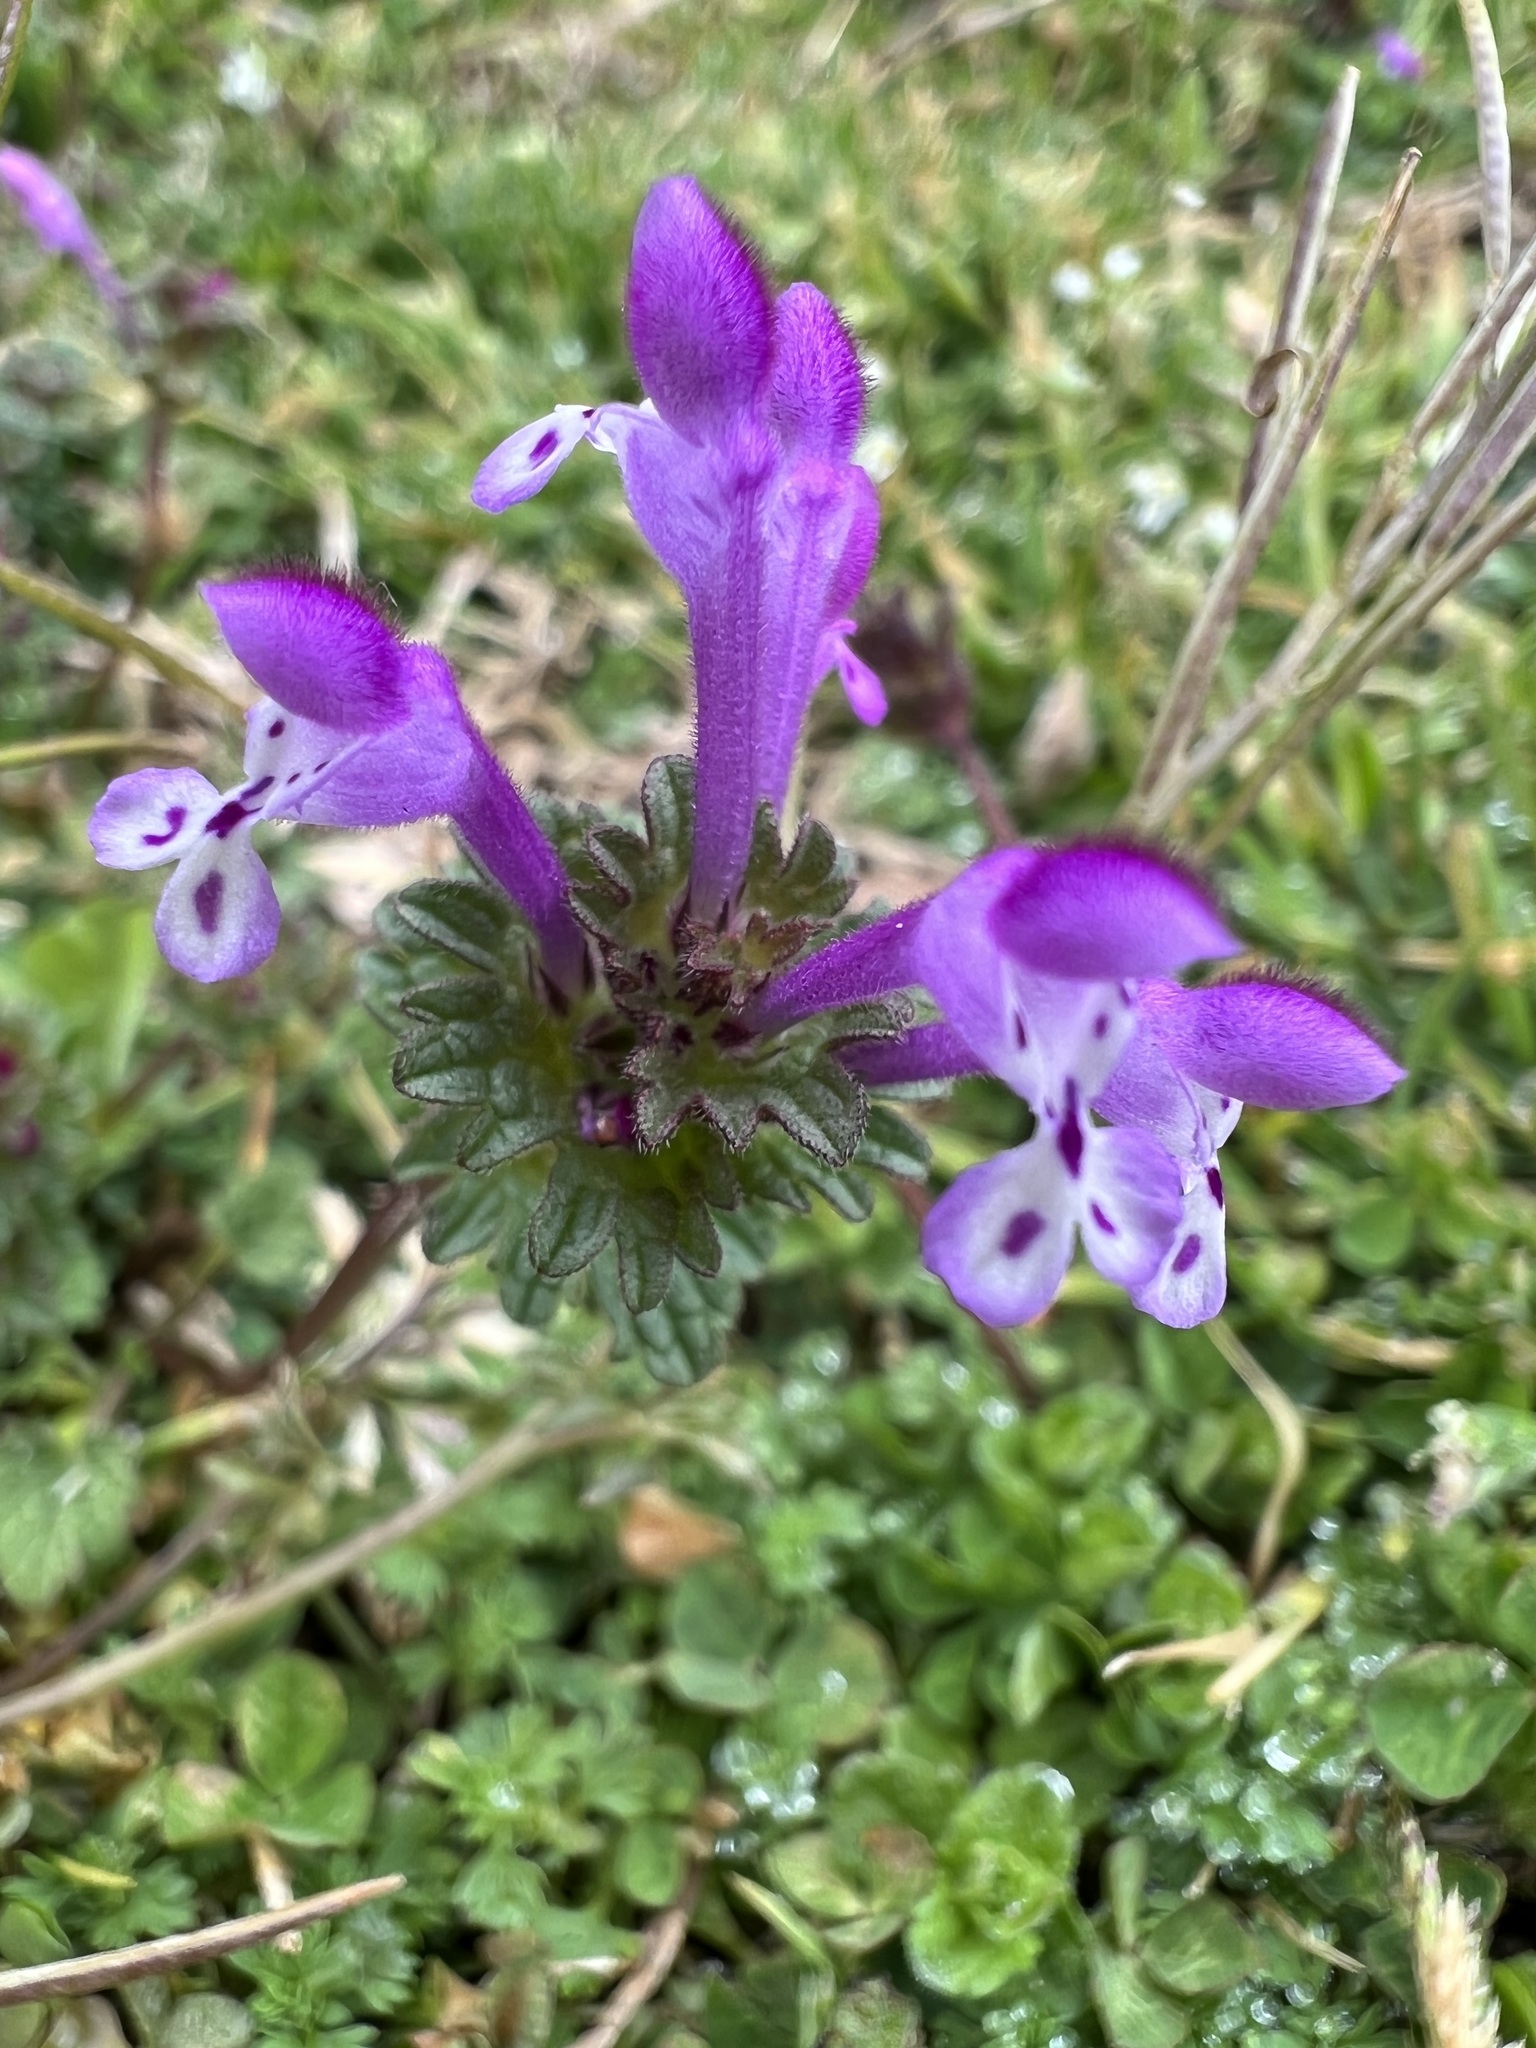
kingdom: Plantae
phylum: Tracheophyta
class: Magnoliopsida
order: Lamiales
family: Lamiaceae
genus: Lamium
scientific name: Lamium amplexicaule
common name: Henbit dead-nettle
